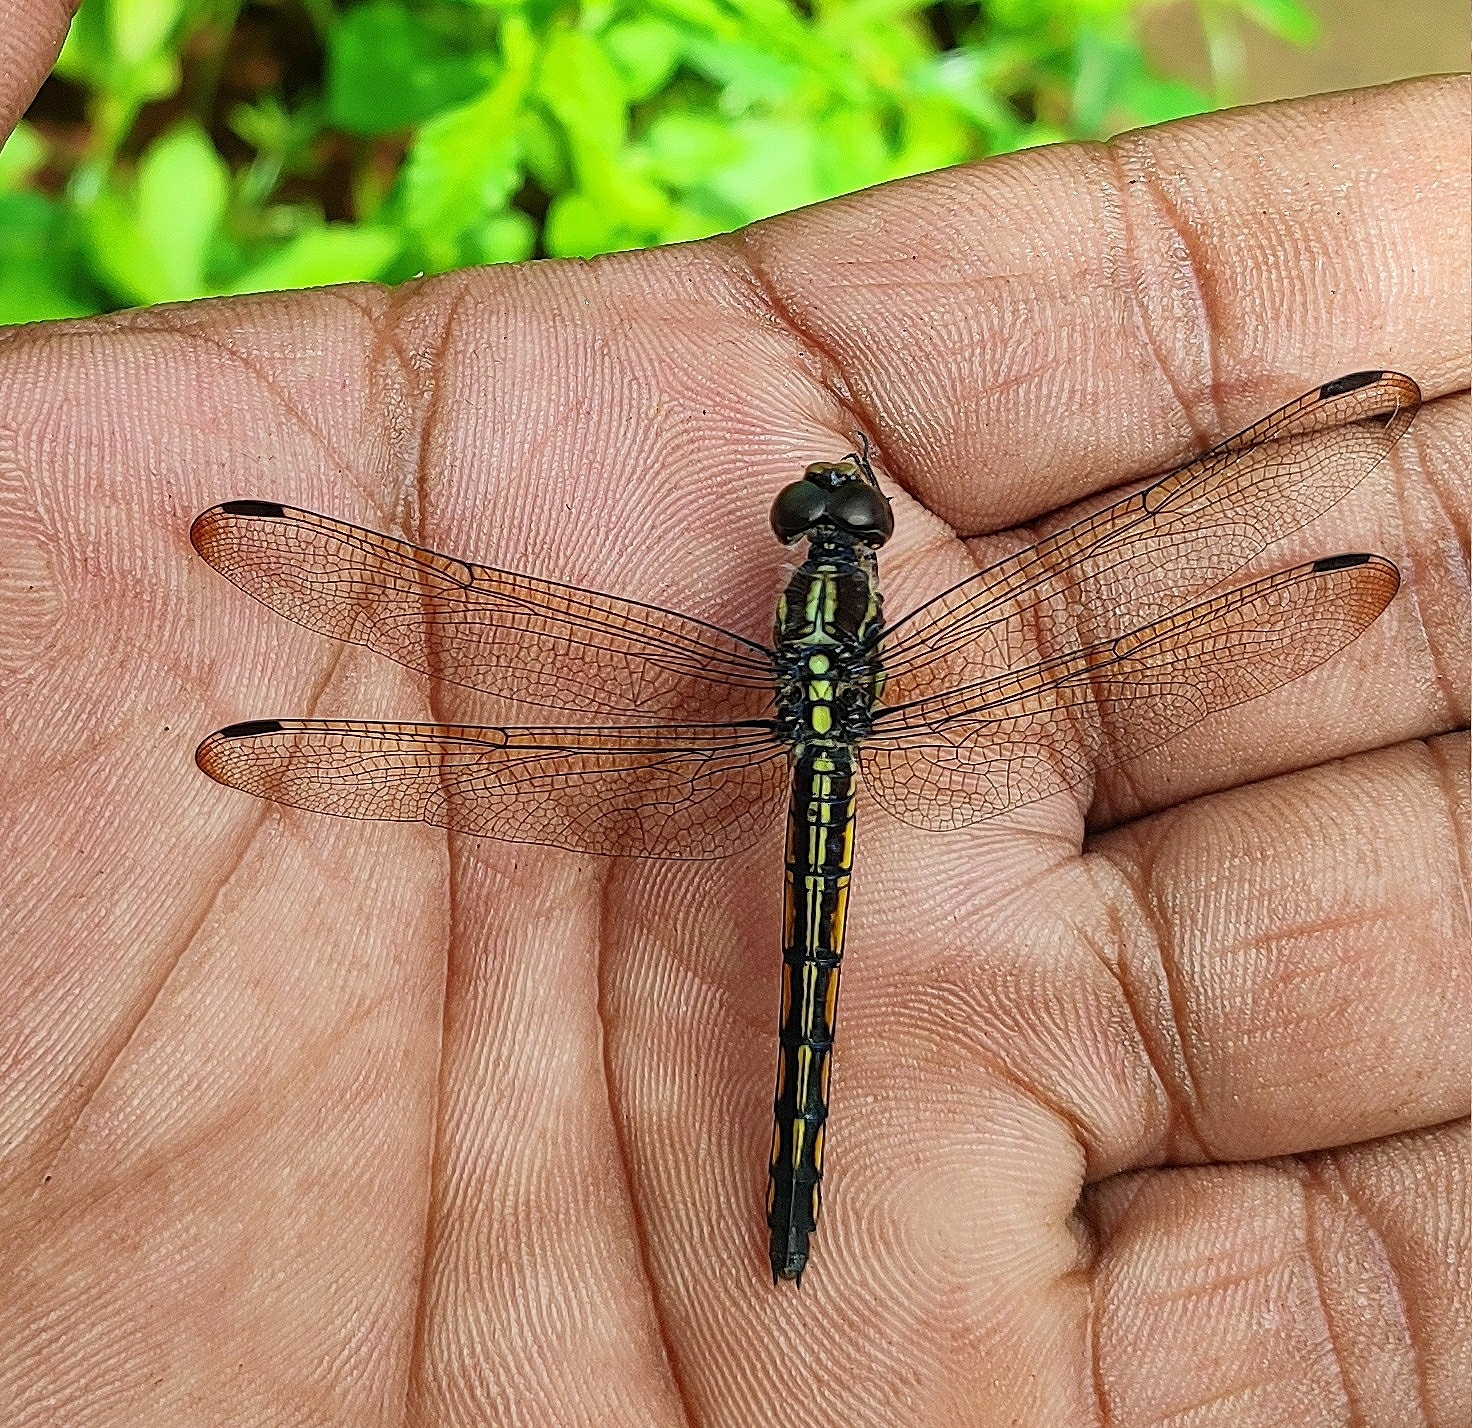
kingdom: Animalia
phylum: Arthropoda
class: Insecta
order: Odonata
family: Libellulidae
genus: Potamarcha
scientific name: Potamarcha congener
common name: Blue chaser
